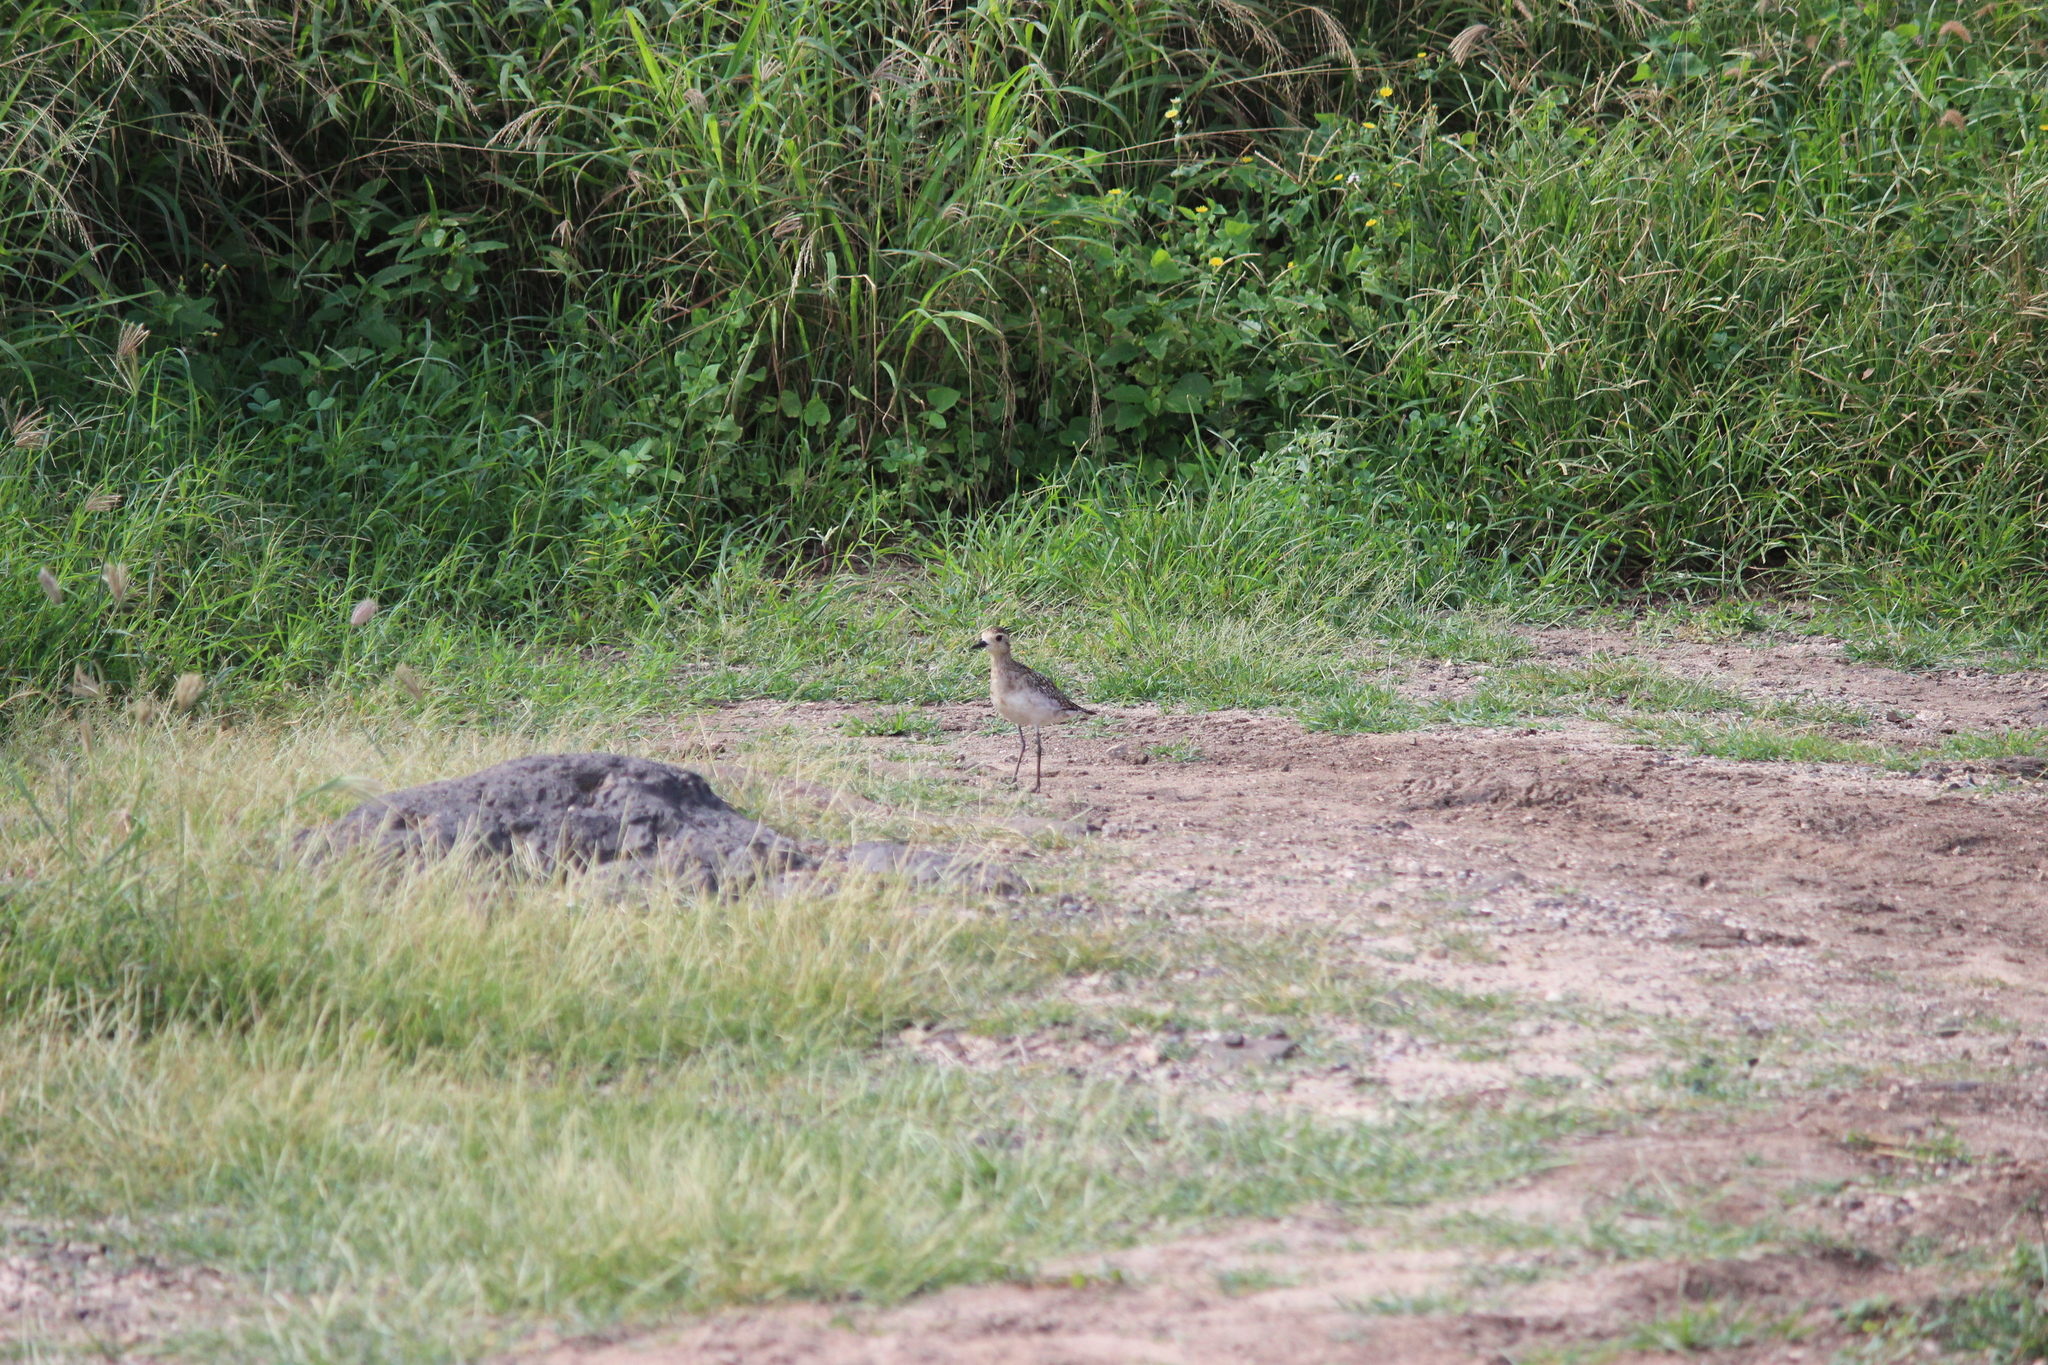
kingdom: Animalia
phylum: Chordata
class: Aves
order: Charadriiformes
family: Charadriidae
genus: Pluvialis
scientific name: Pluvialis fulva
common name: Pacific golden plover
